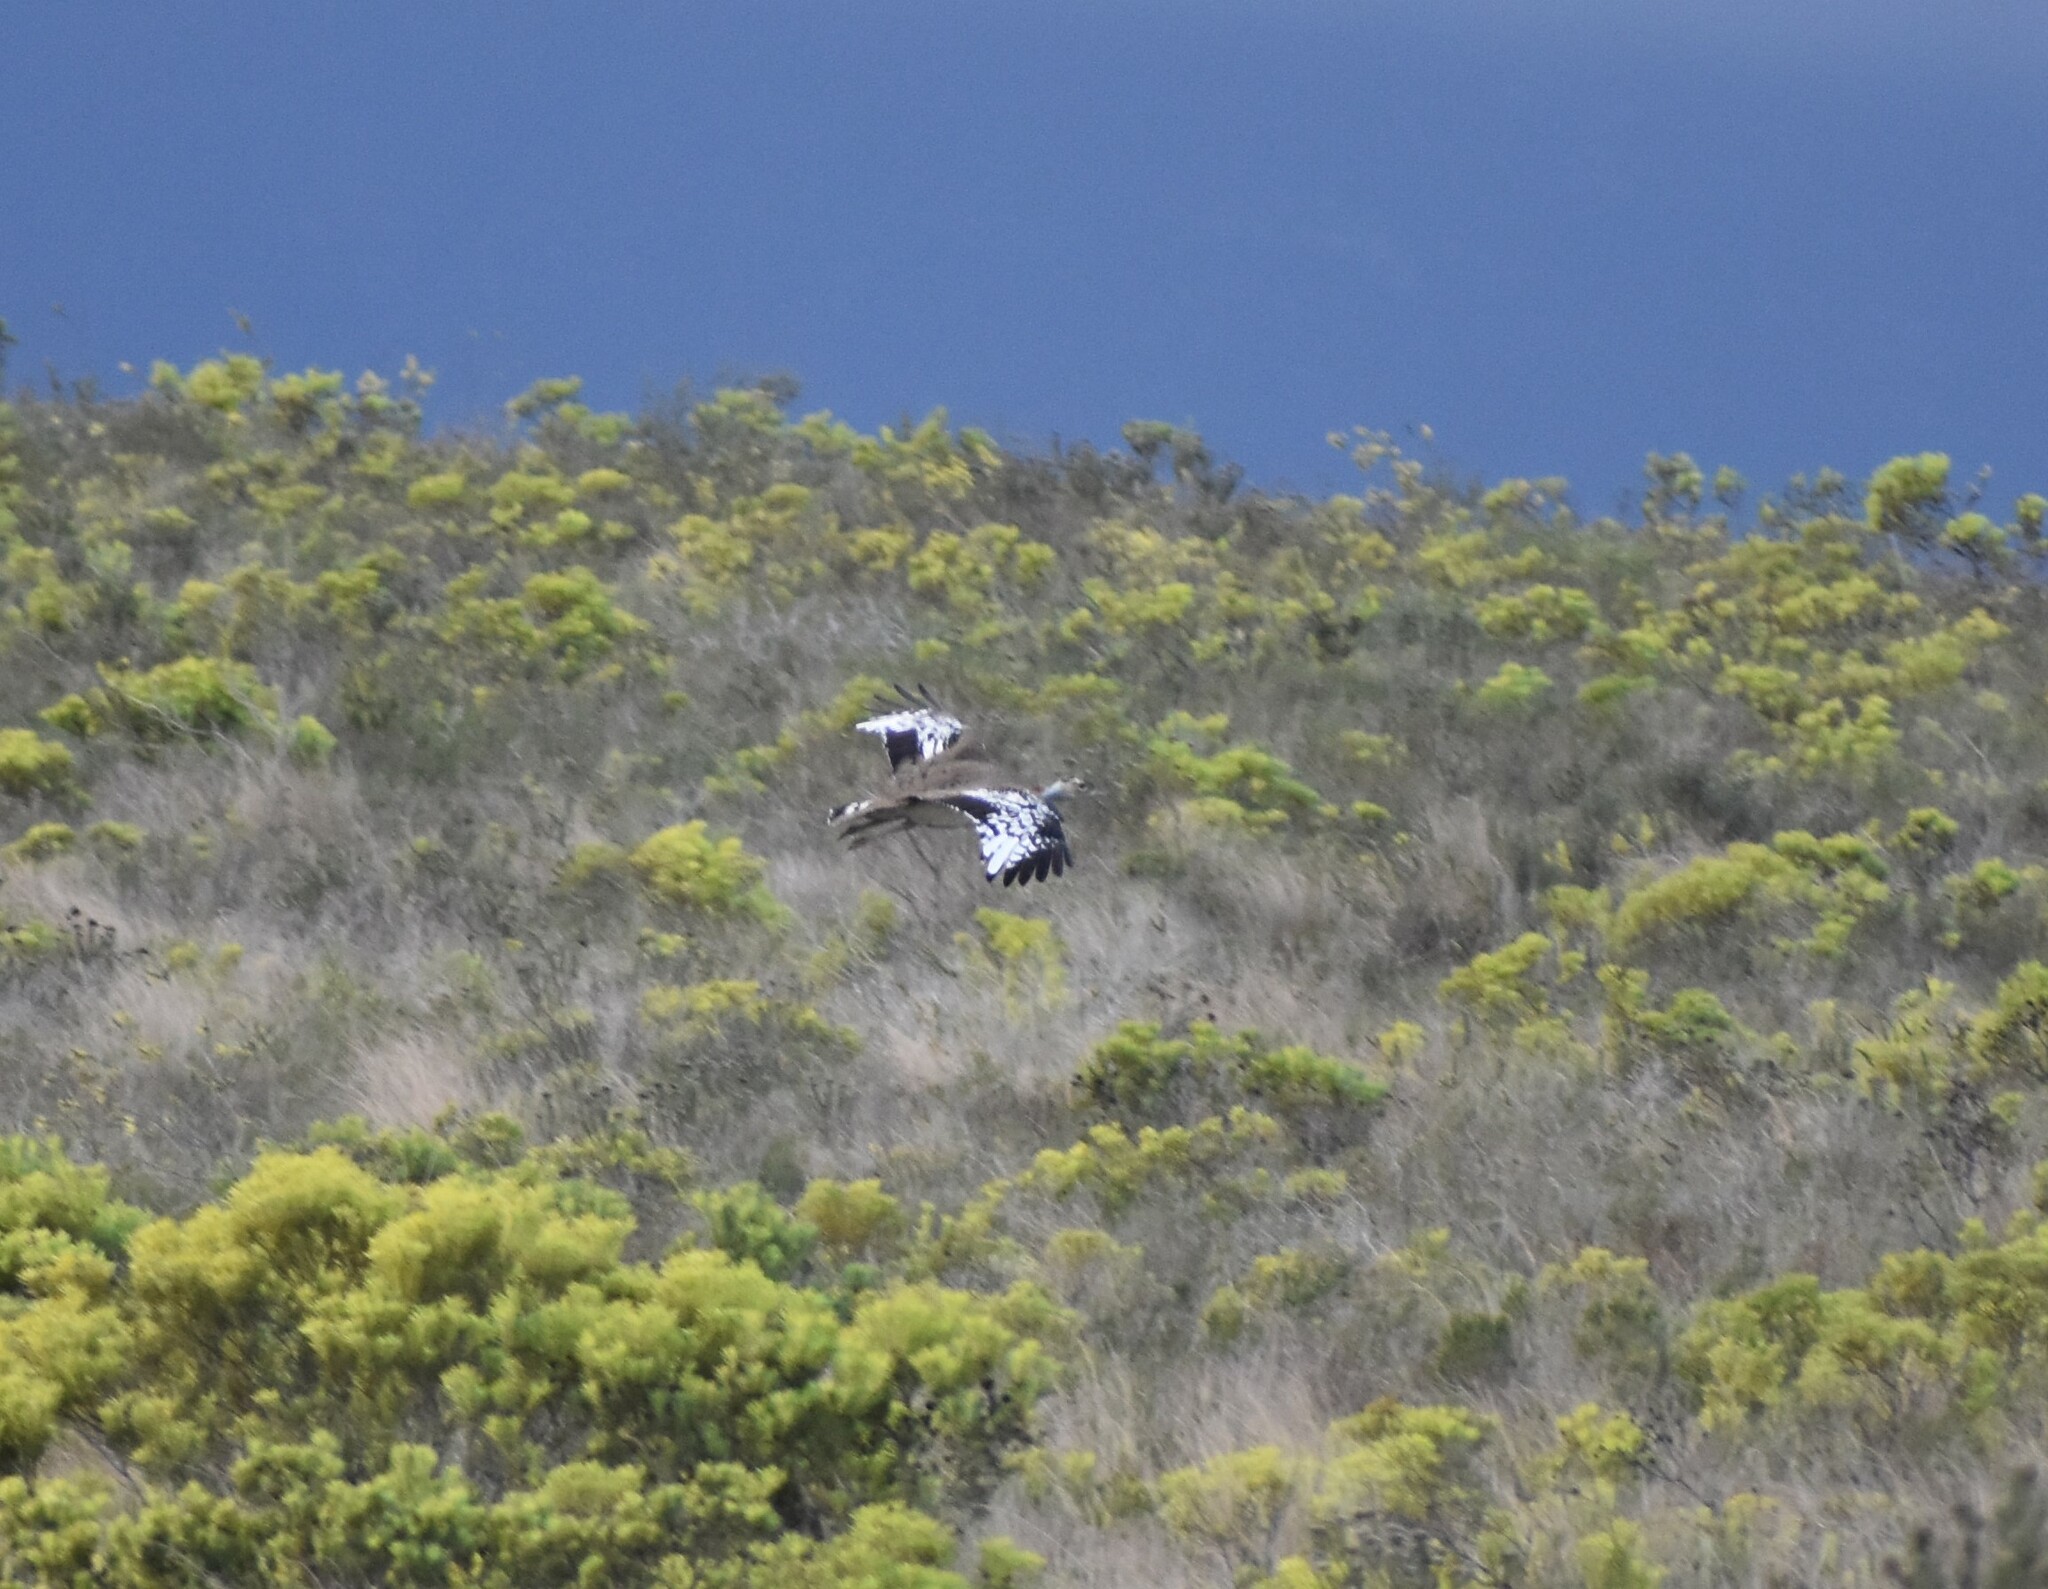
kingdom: Animalia
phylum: Chordata
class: Aves
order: Otidiformes
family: Otididae
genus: Neotis
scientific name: Neotis denhami
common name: Denham's bustard
